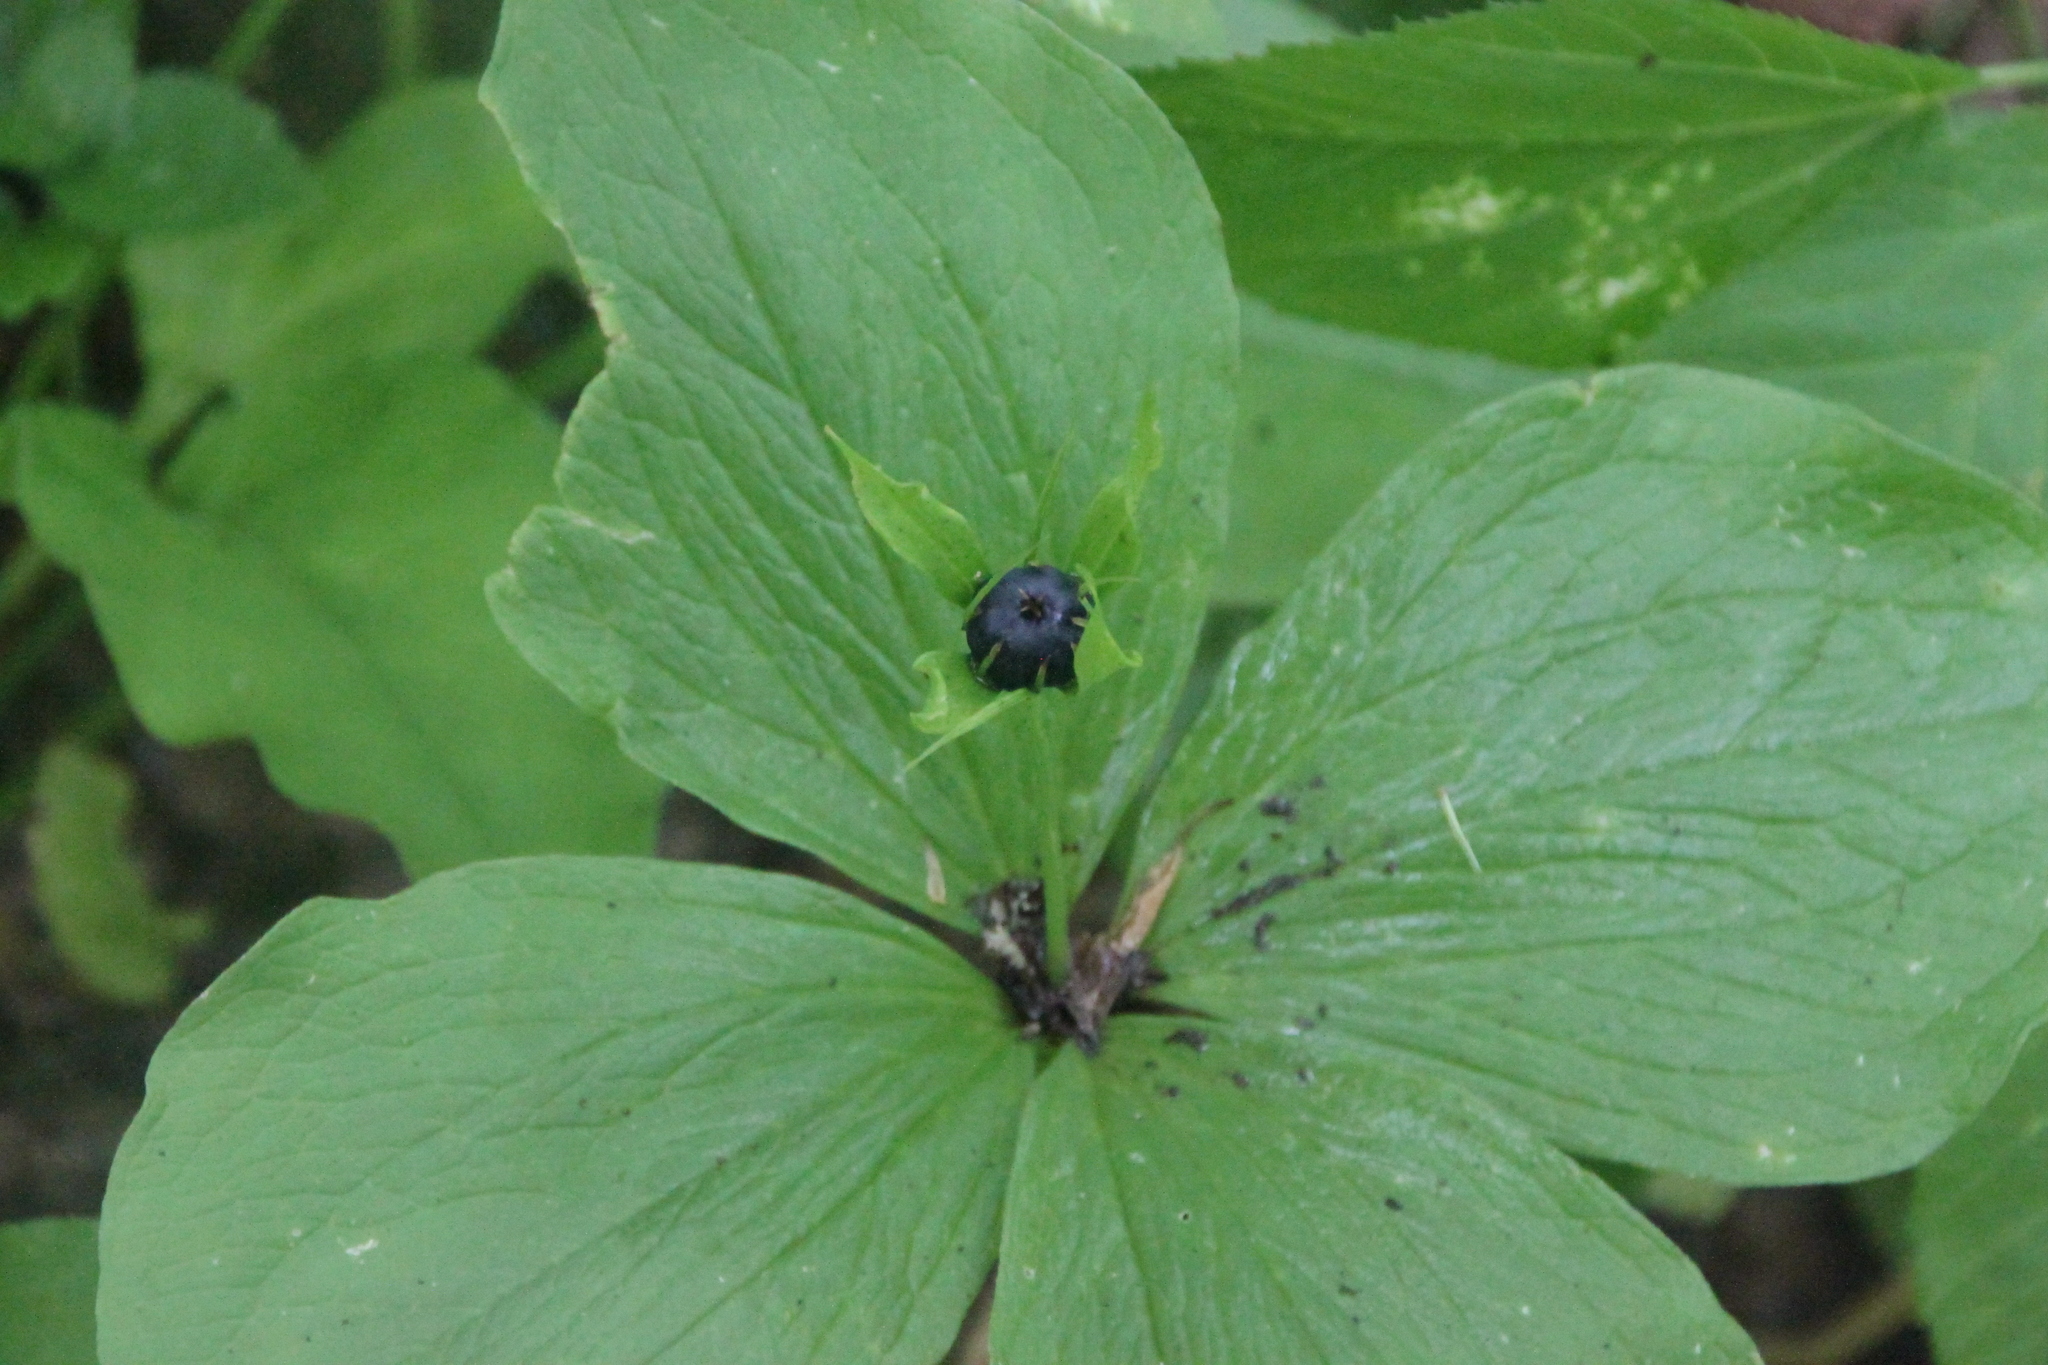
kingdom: Plantae
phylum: Tracheophyta
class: Liliopsida
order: Liliales
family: Melanthiaceae
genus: Paris
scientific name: Paris quadrifolia
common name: Herb-paris
